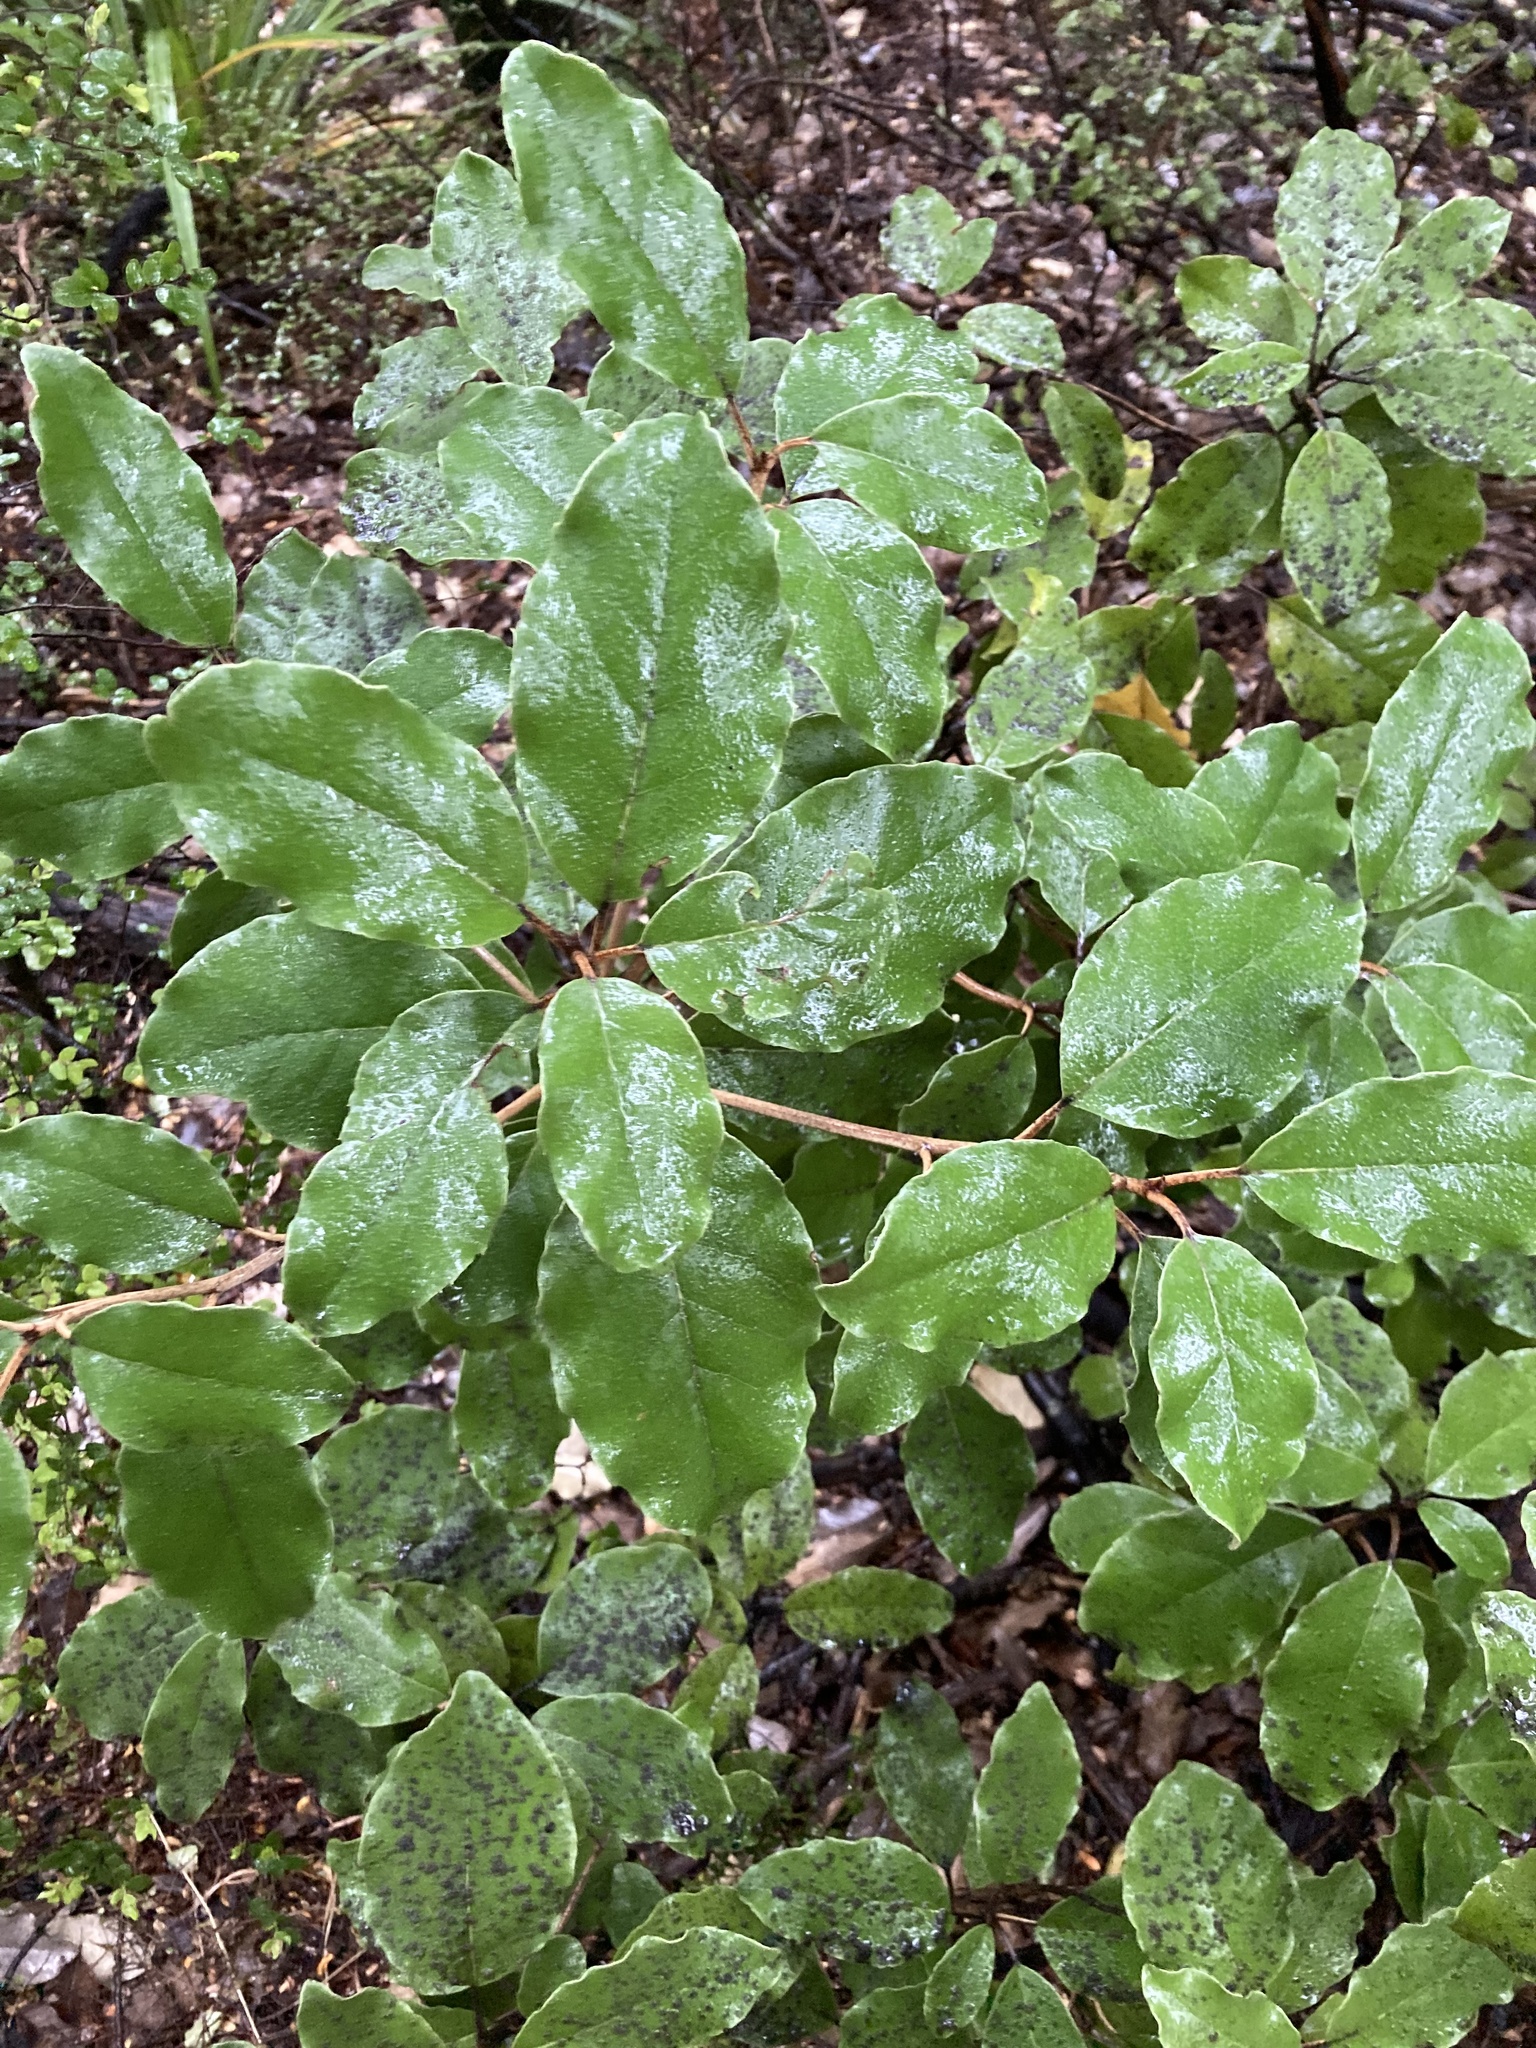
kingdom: Plantae
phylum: Tracheophyta
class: Magnoliopsida
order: Asterales
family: Asteraceae
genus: Olearia
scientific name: Olearia arborescens
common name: Glossy tree daisy
